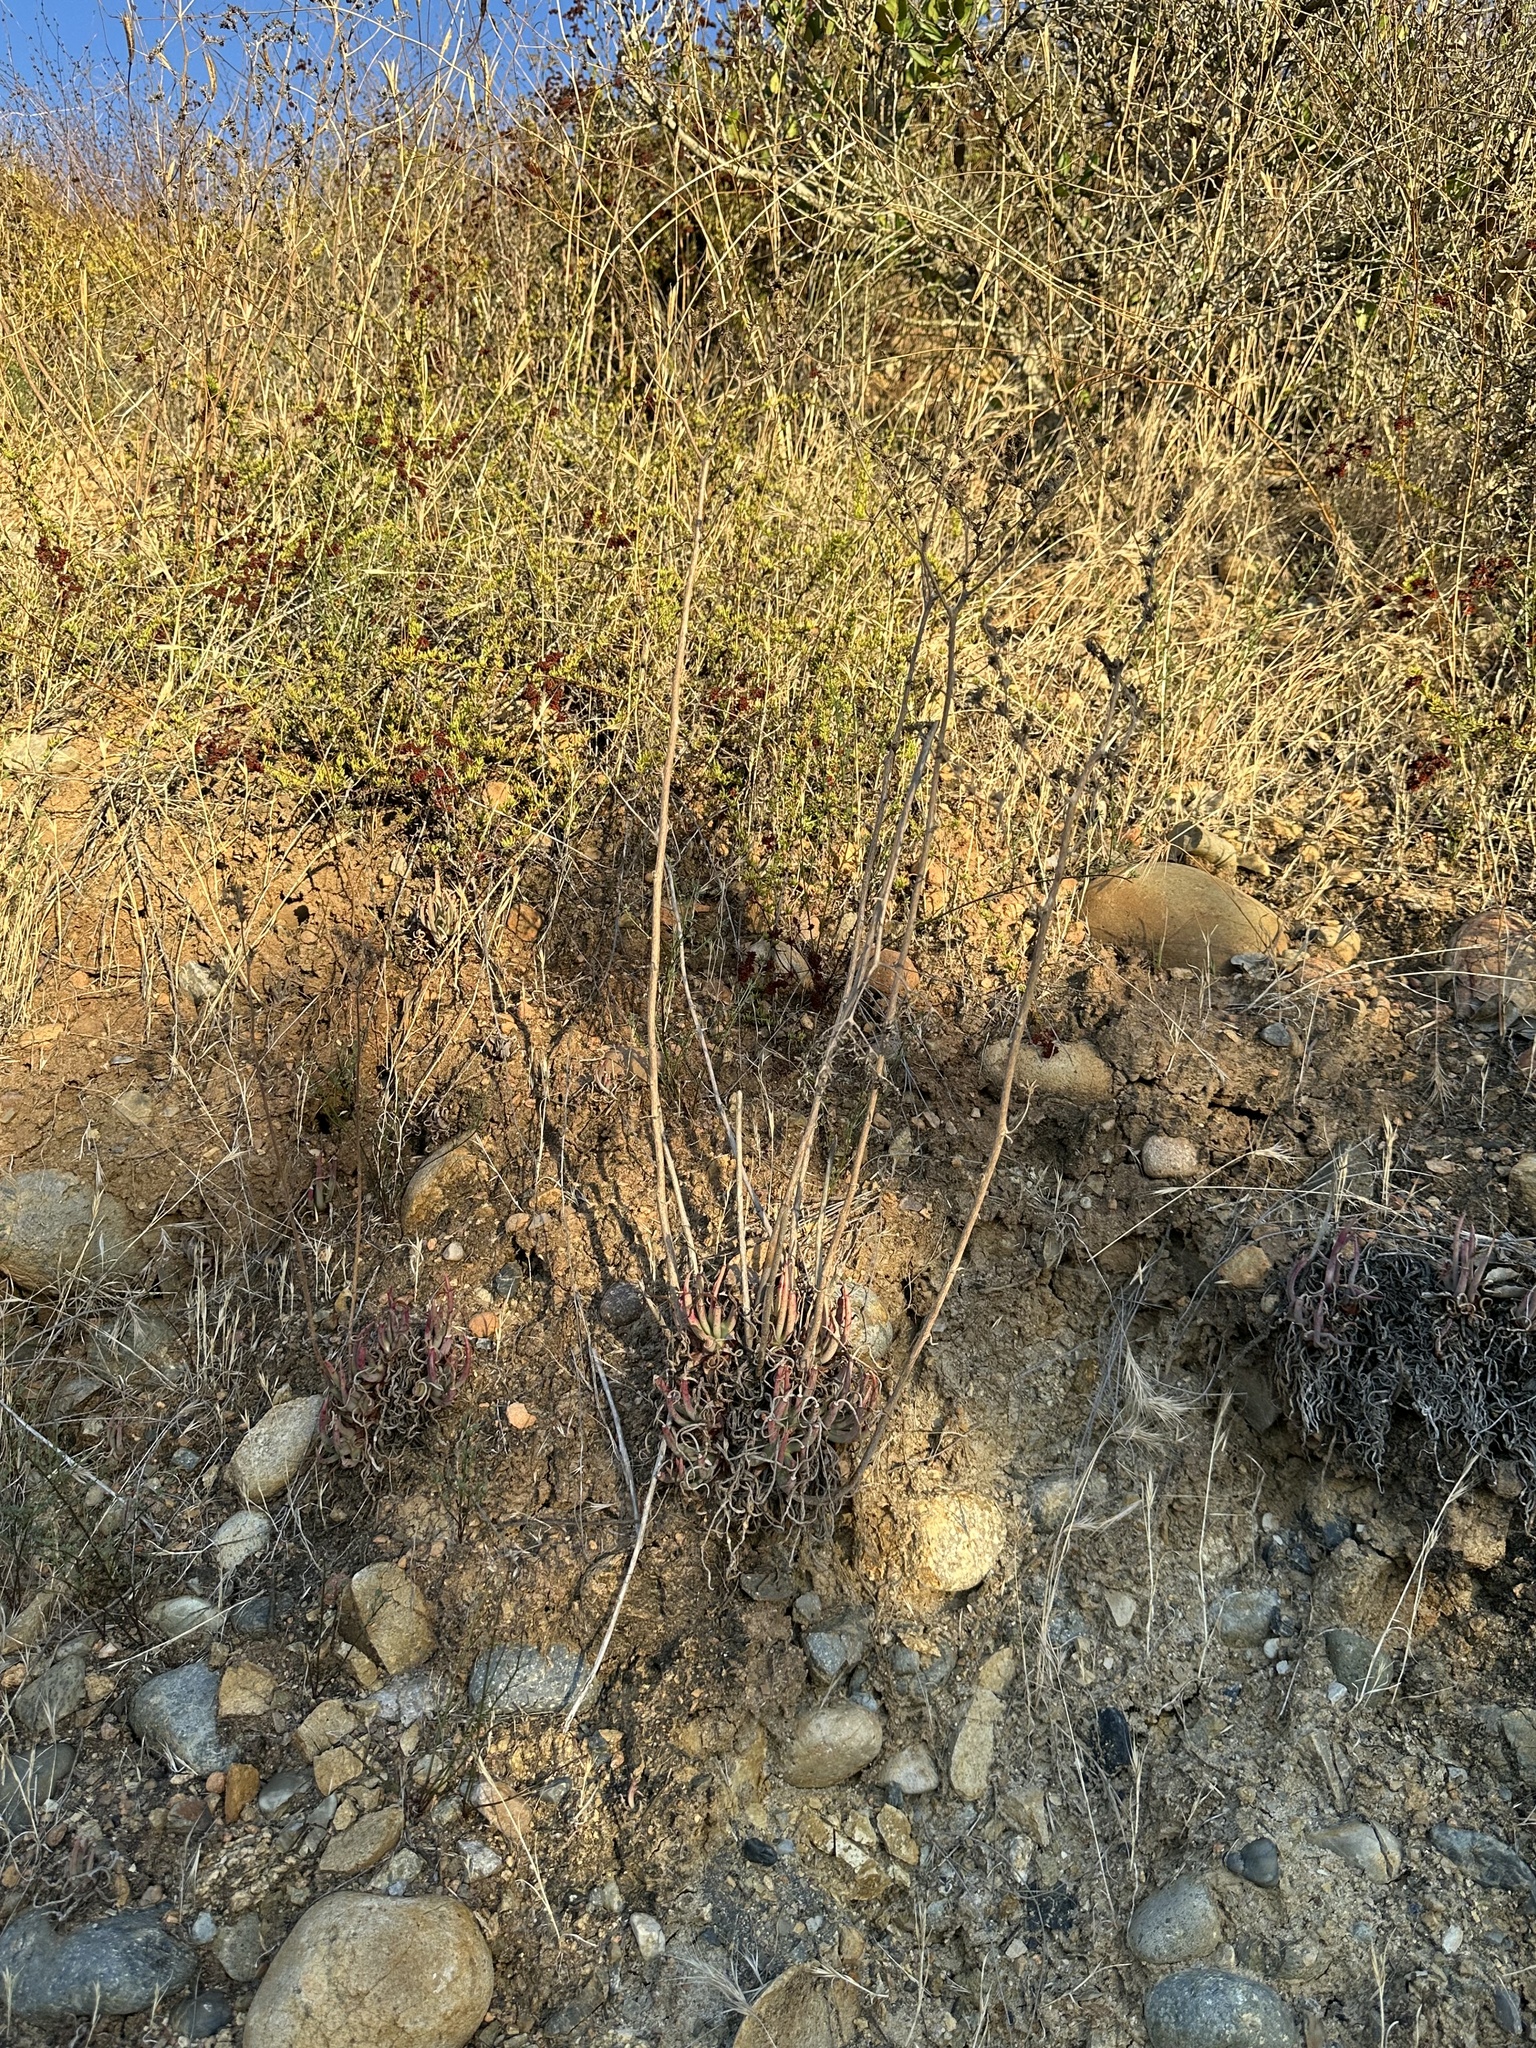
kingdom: Plantae
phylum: Tracheophyta
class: Magnoliopsida
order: Saxifragales
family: Crassulaceae
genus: Dudleya
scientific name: Dudleya edulis
